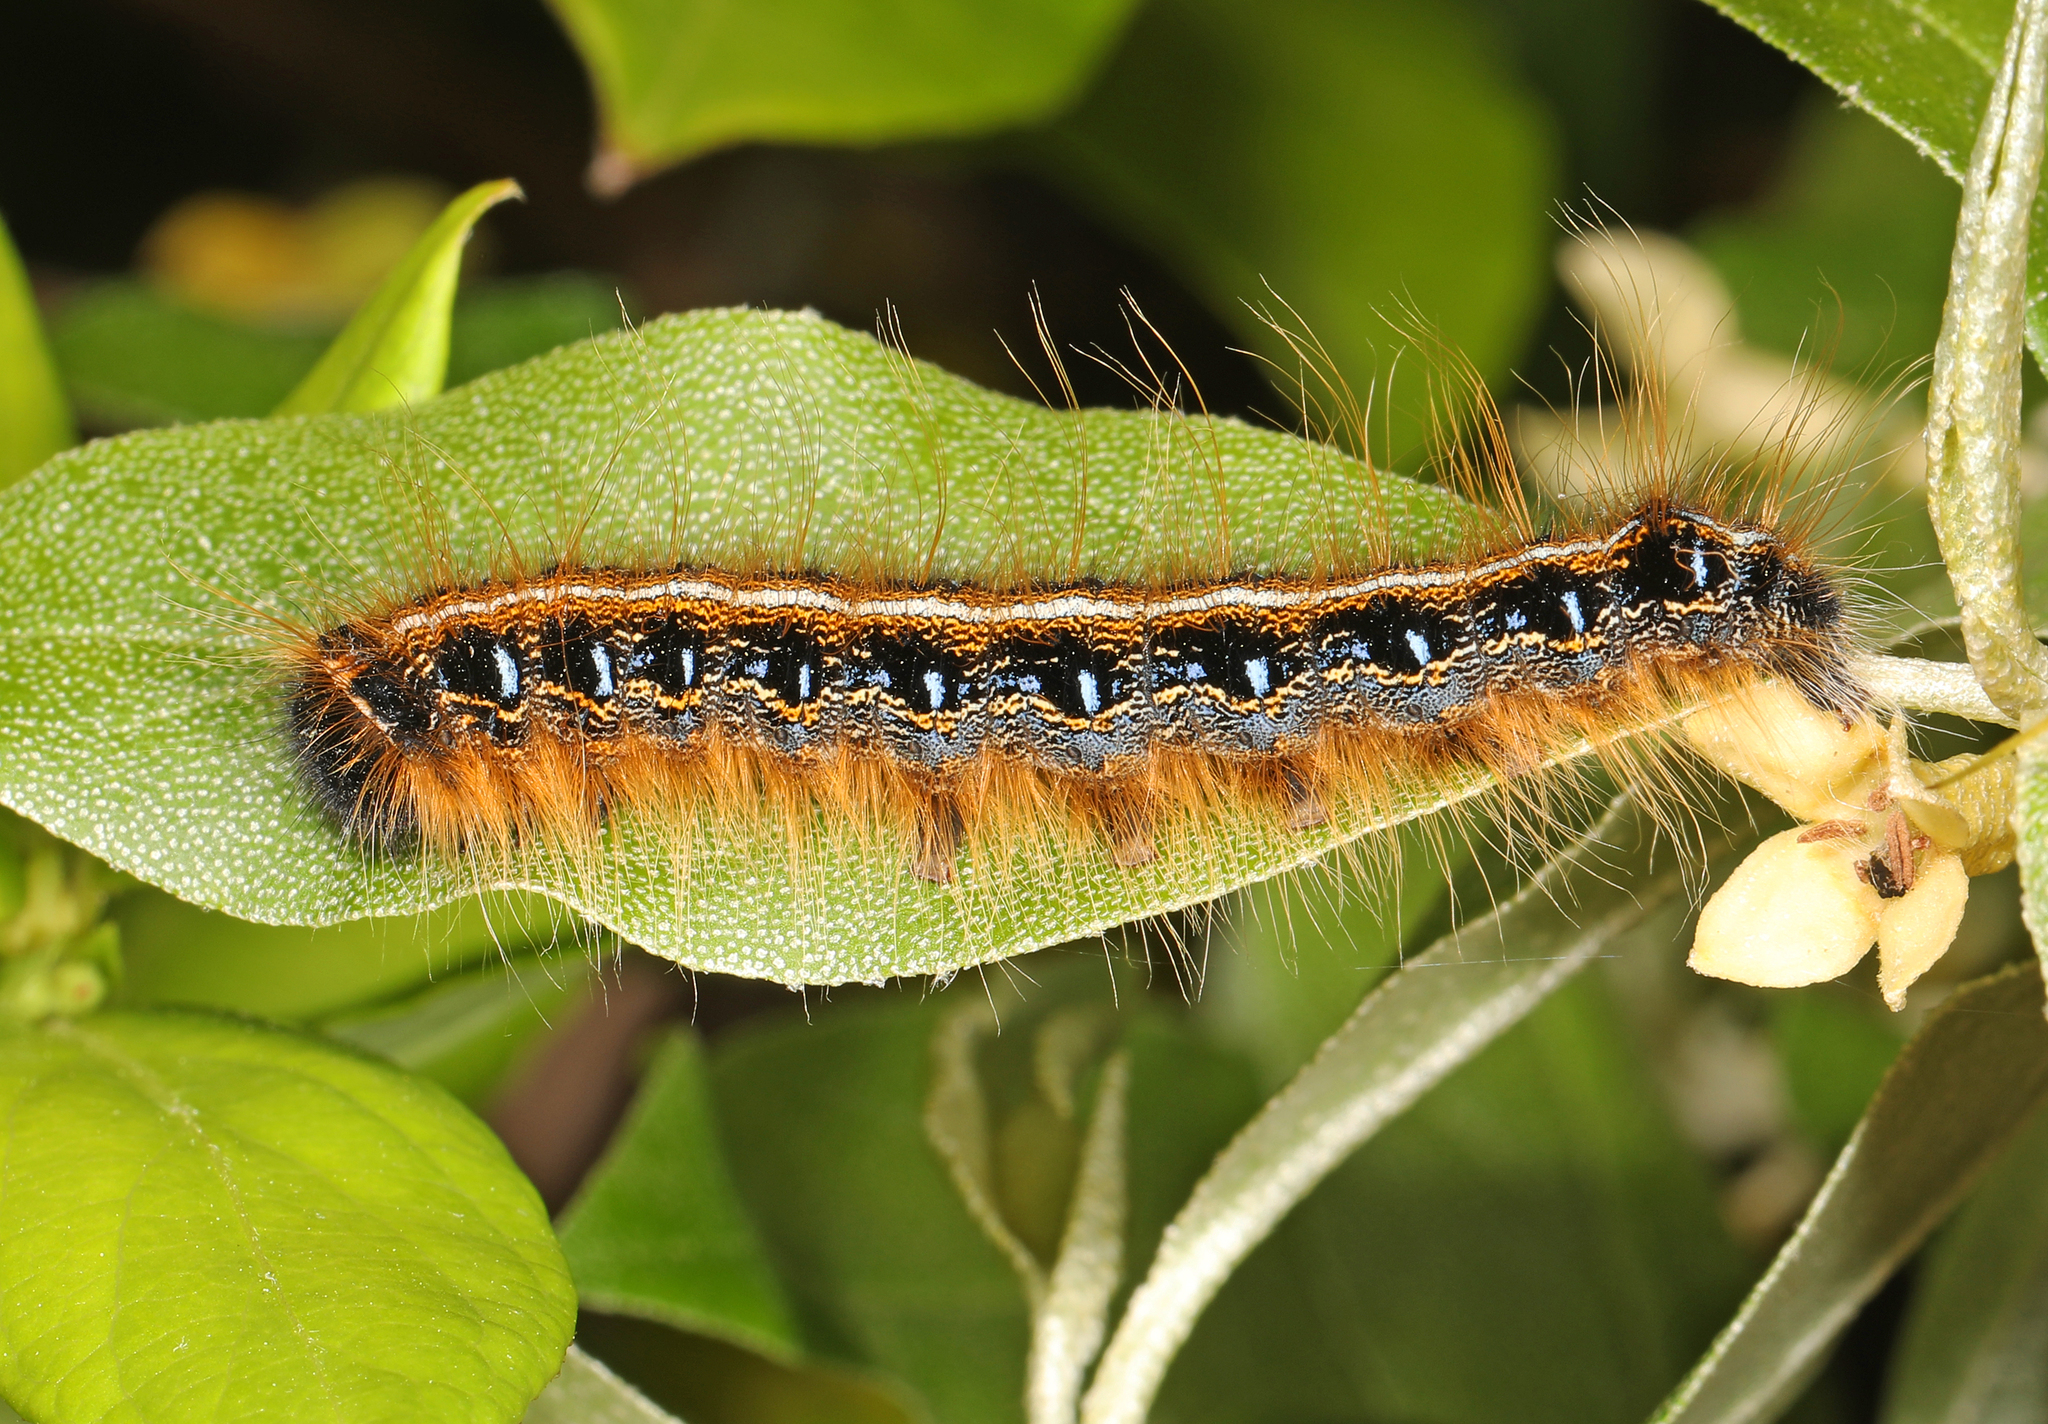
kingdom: Animalia
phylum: Arthropoda
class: Insecta
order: Lepidoptera
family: Lasiocampidae
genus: Malacosoma
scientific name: Malacosoma americana
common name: Eastern tent caterpillar moth
